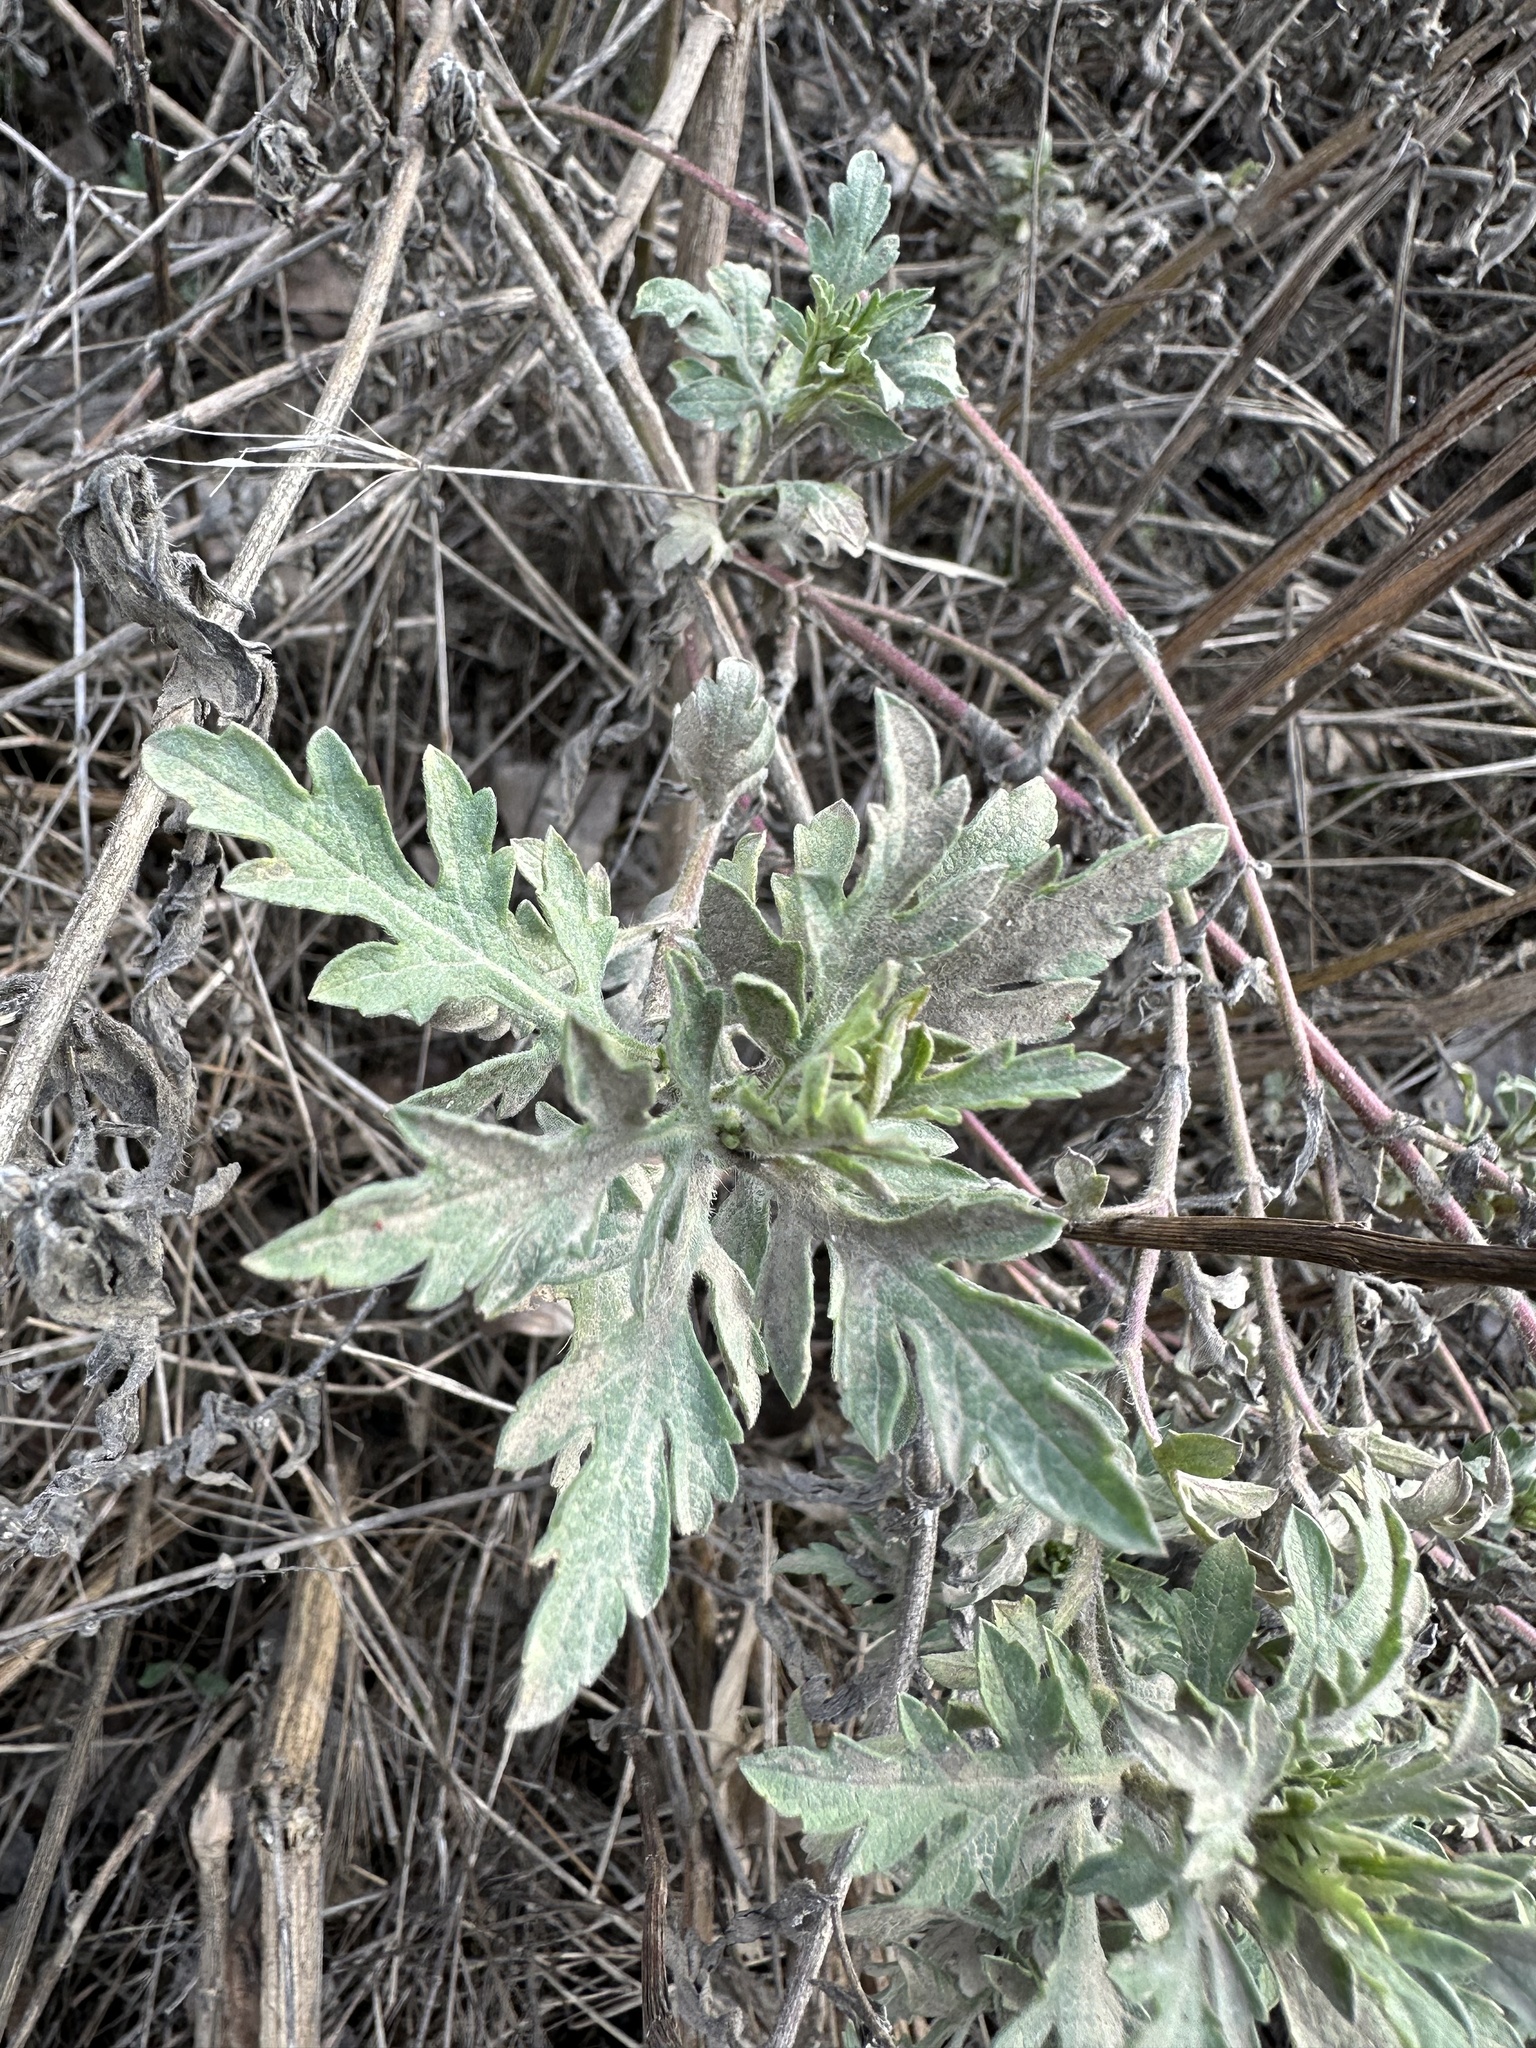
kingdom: Plantae
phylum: Tracheophyta
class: Magnoliopsida
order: Asterales
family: Asteraceae
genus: Ambrosia
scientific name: Ambrosia psilostachya
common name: Perennial ragweed
